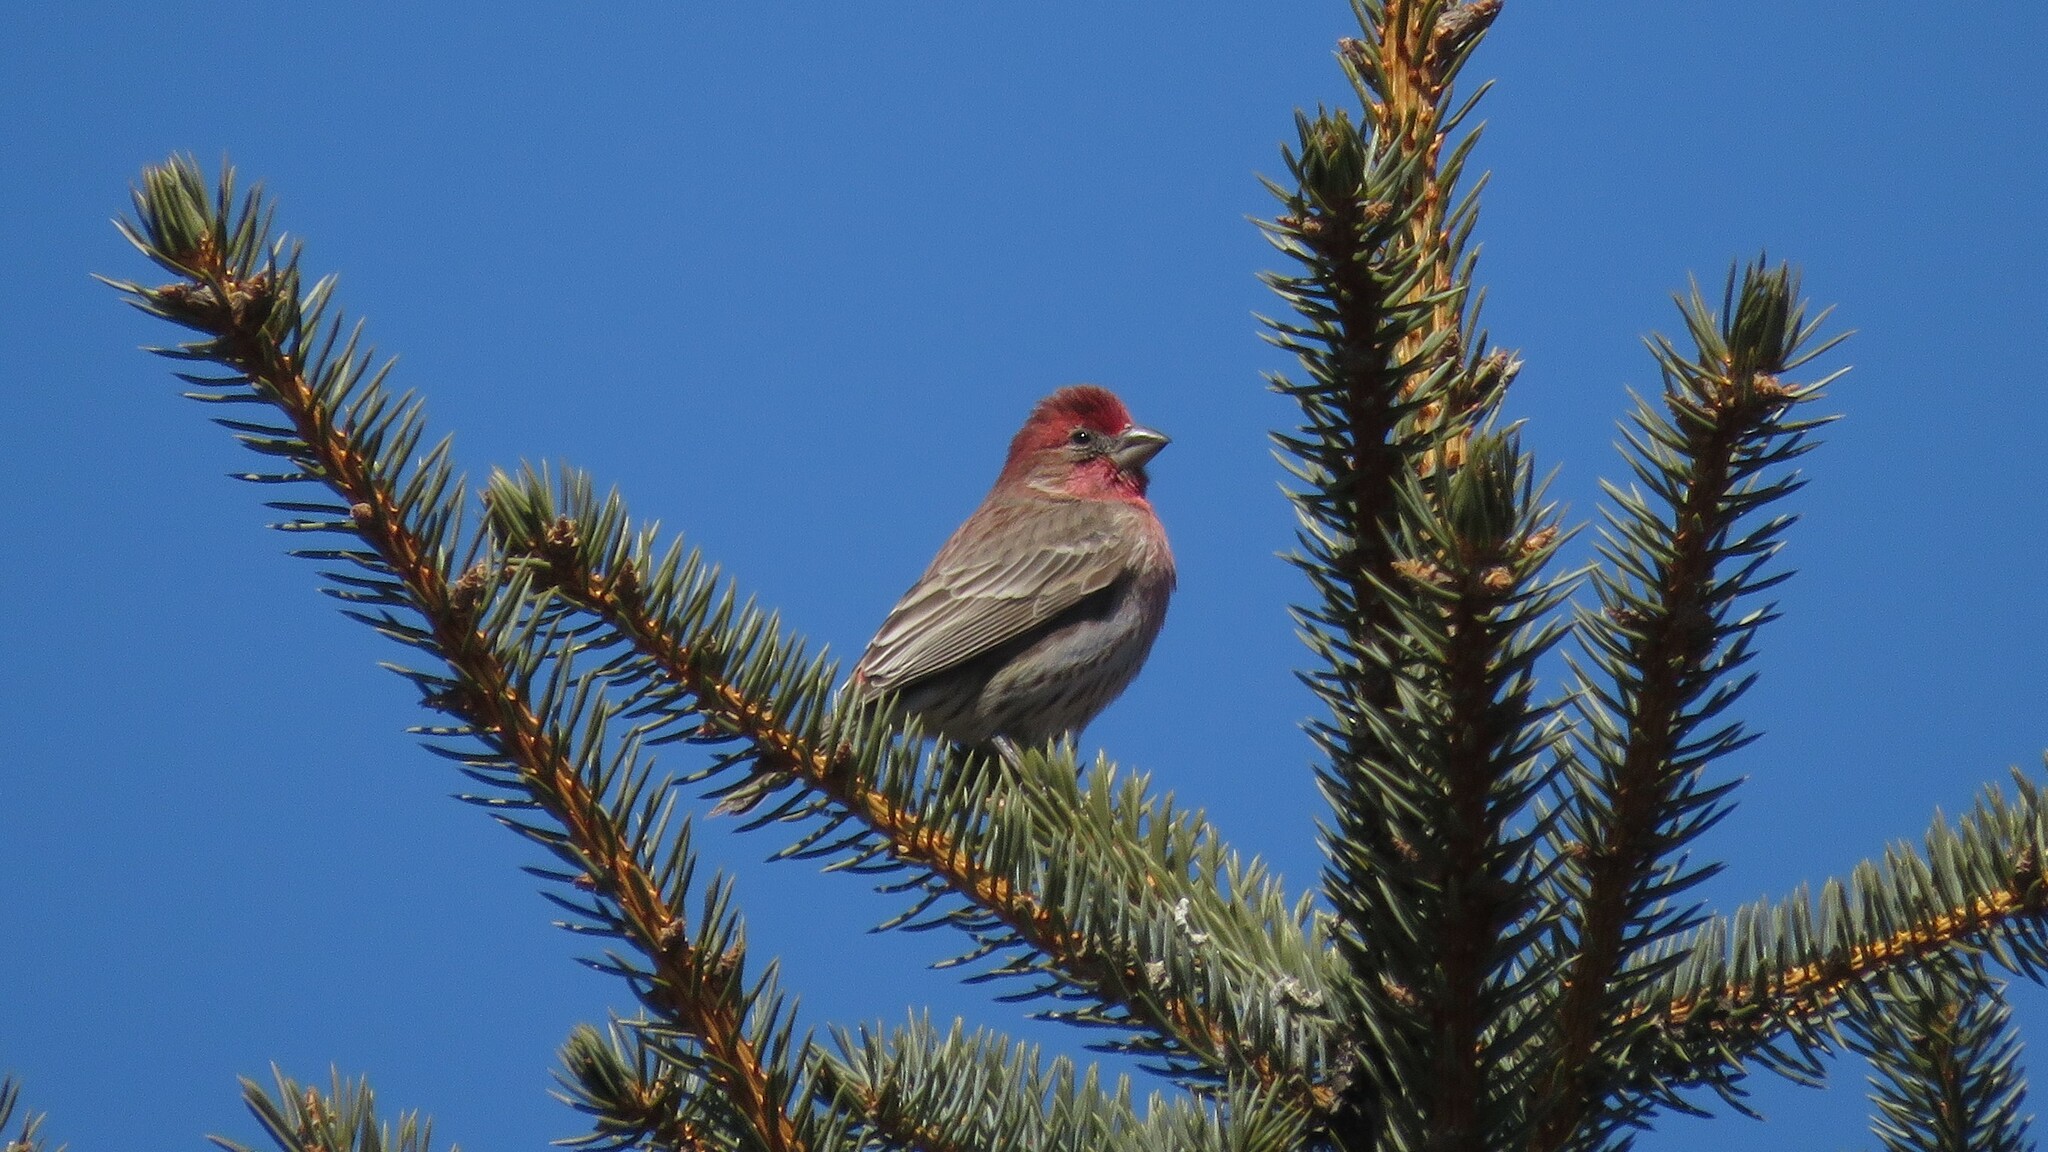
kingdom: Animalia
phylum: Chordata
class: Aves
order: Passeriformes
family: Fringillidae
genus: Haemorhous
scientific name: Haemorhous mexicanus
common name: House finch
